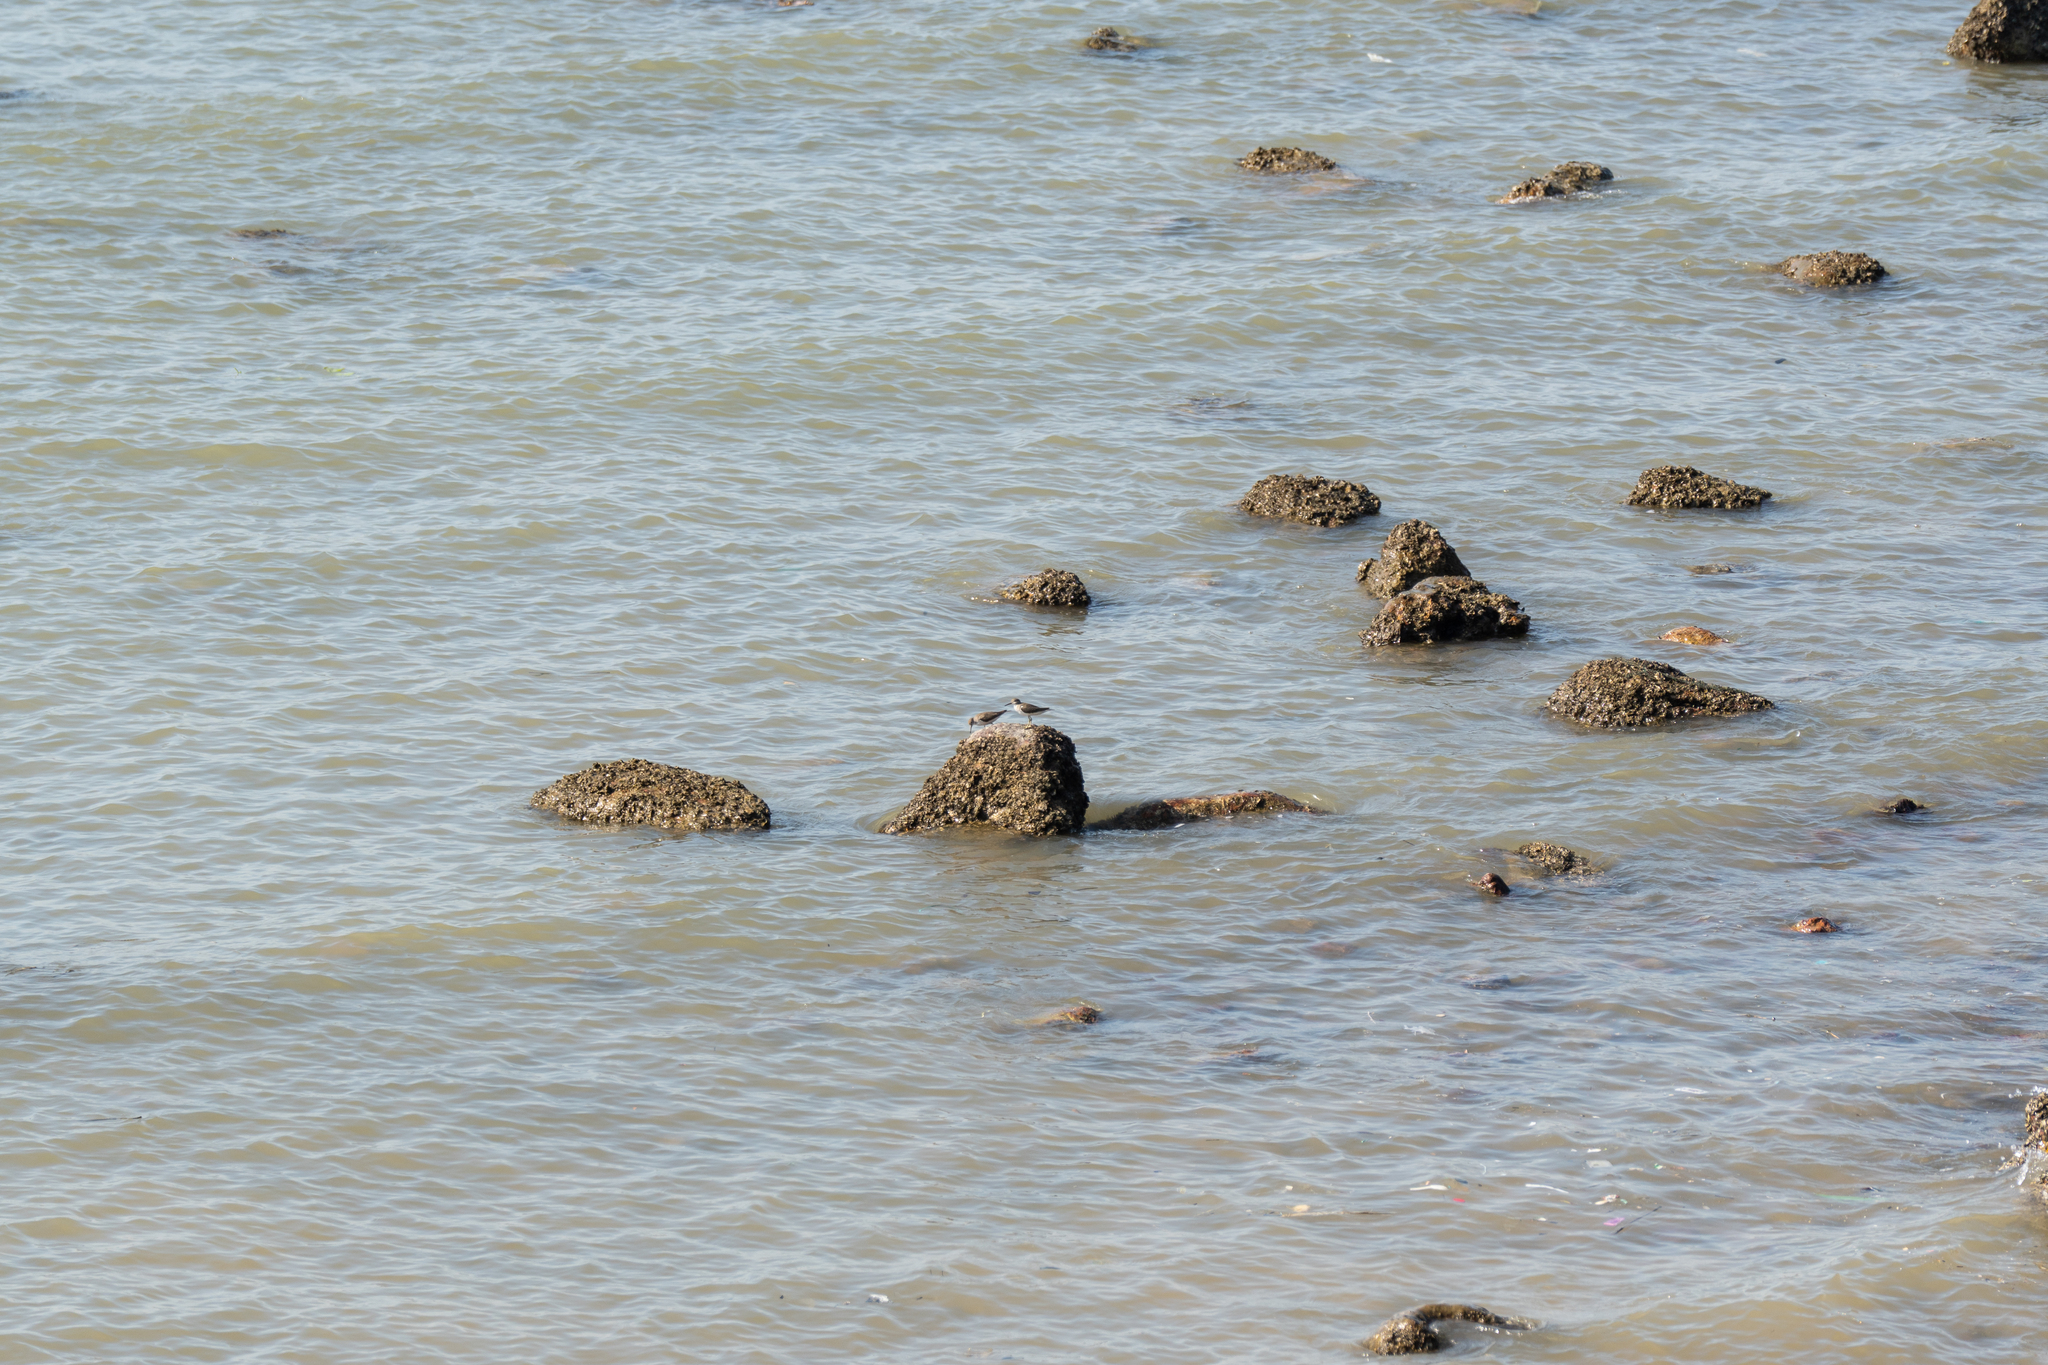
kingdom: Animalia
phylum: Chordata
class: Aves
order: Charadriiformes
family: Scolopacidae
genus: Actitis
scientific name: Actitis hypoleucos
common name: Common sandpiper
